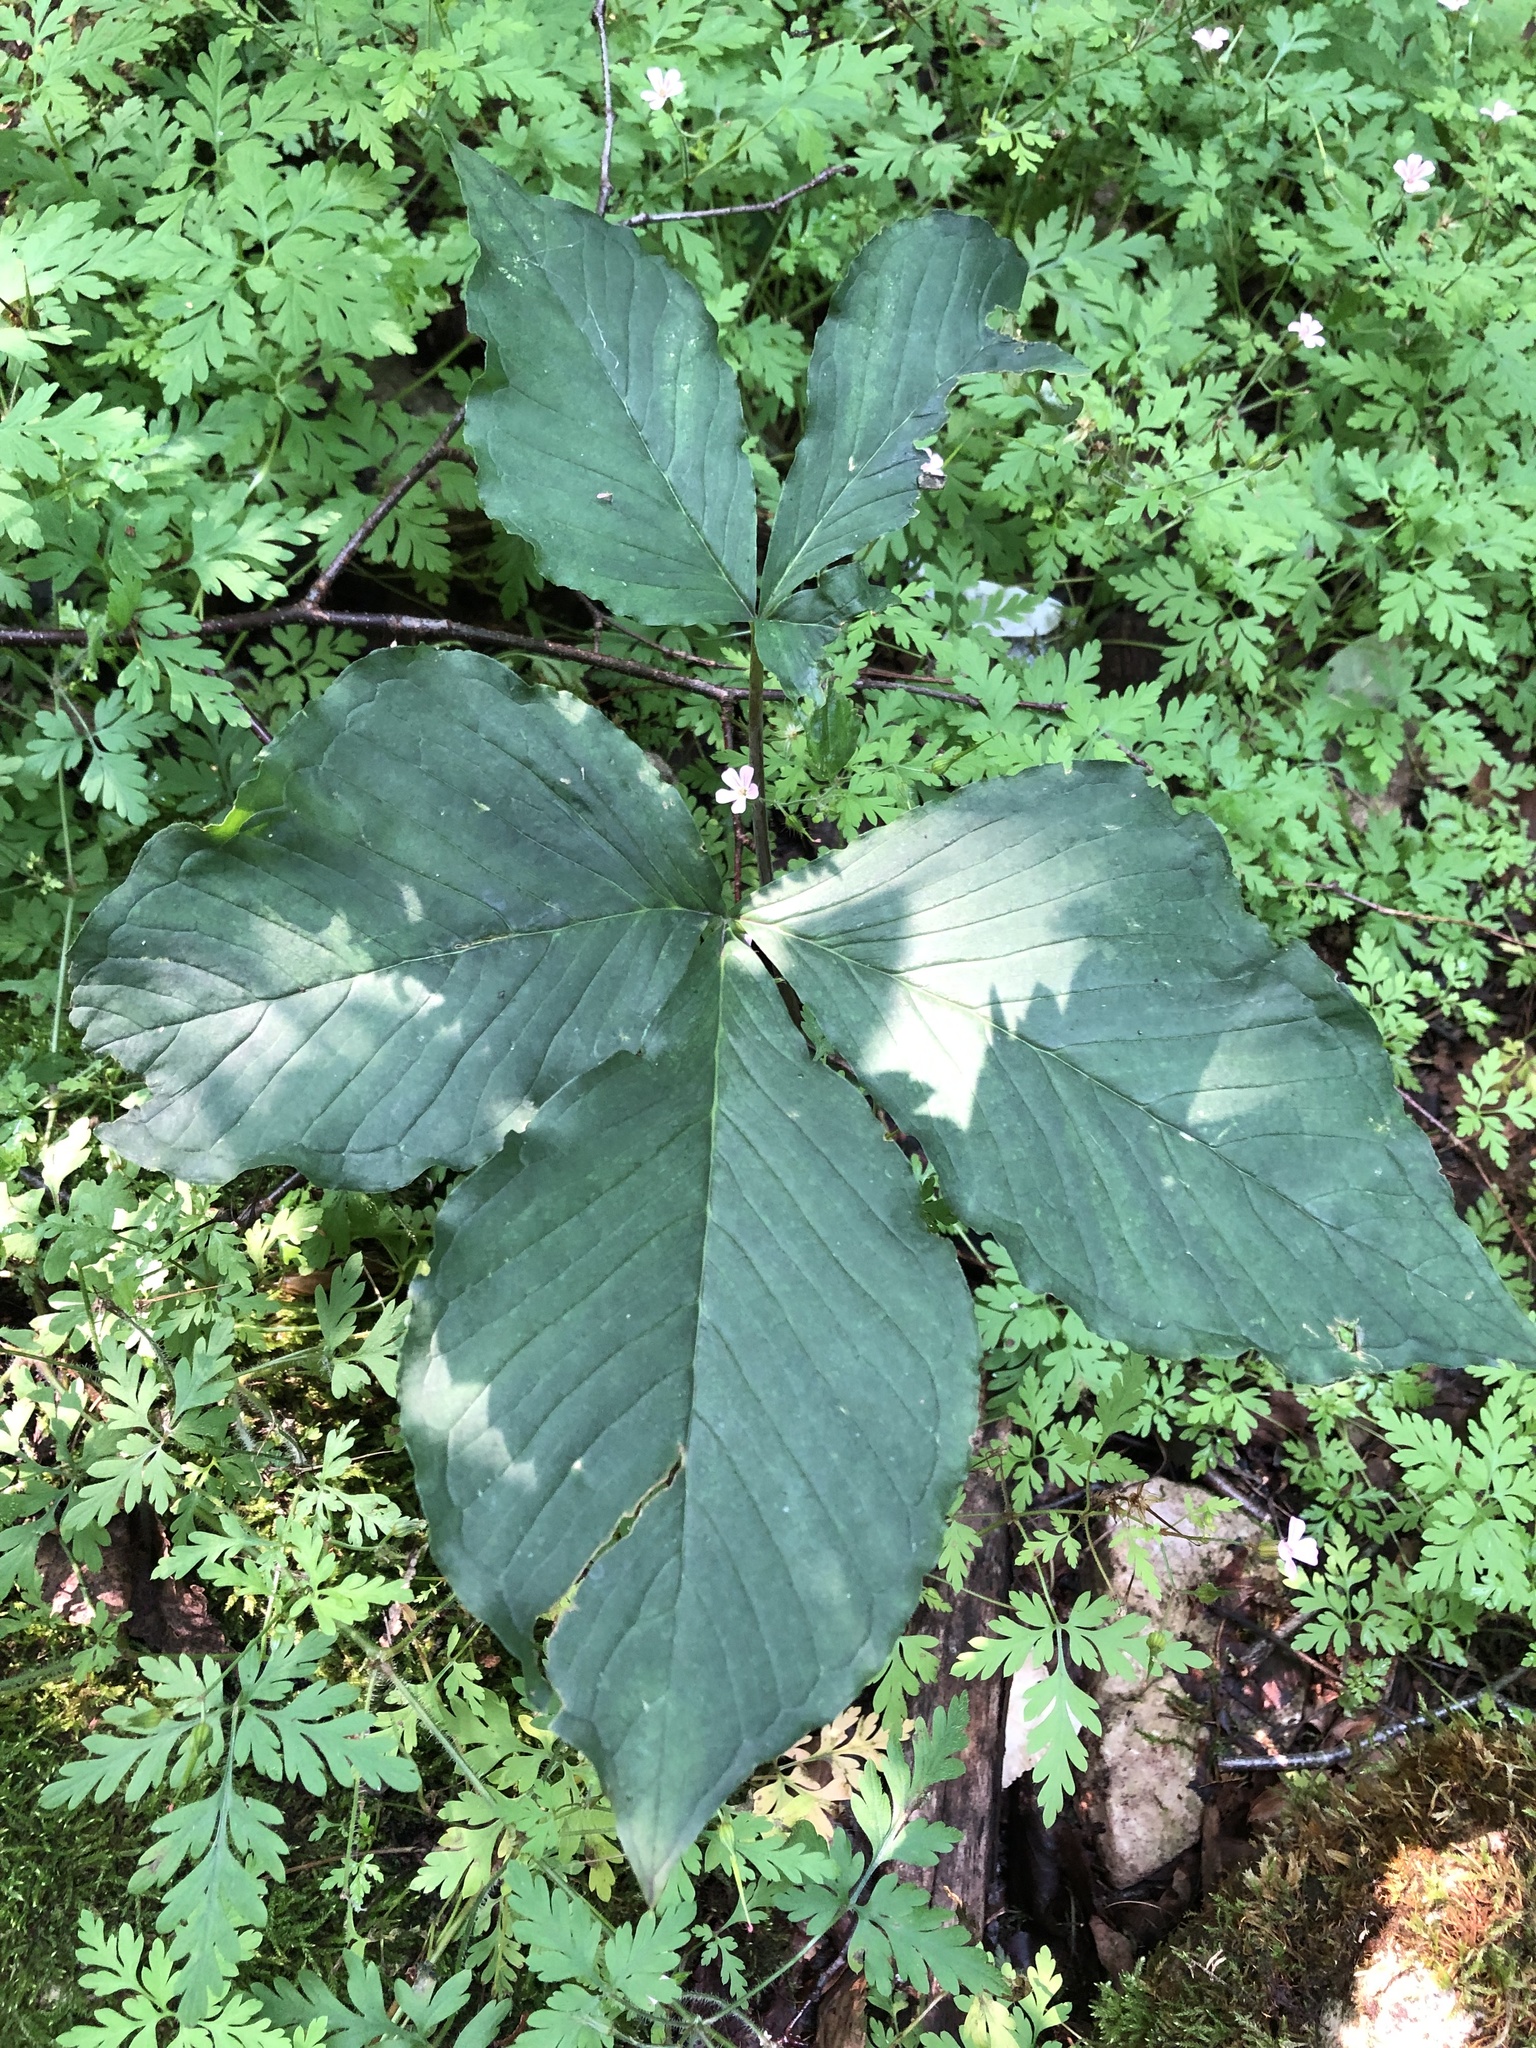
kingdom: Plantae
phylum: Tracheophyta
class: Liliopsida
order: Alismatales
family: Araceae
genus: Arisaema
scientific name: Arisaema triphyllum
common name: Jack-in-the-pulpit
